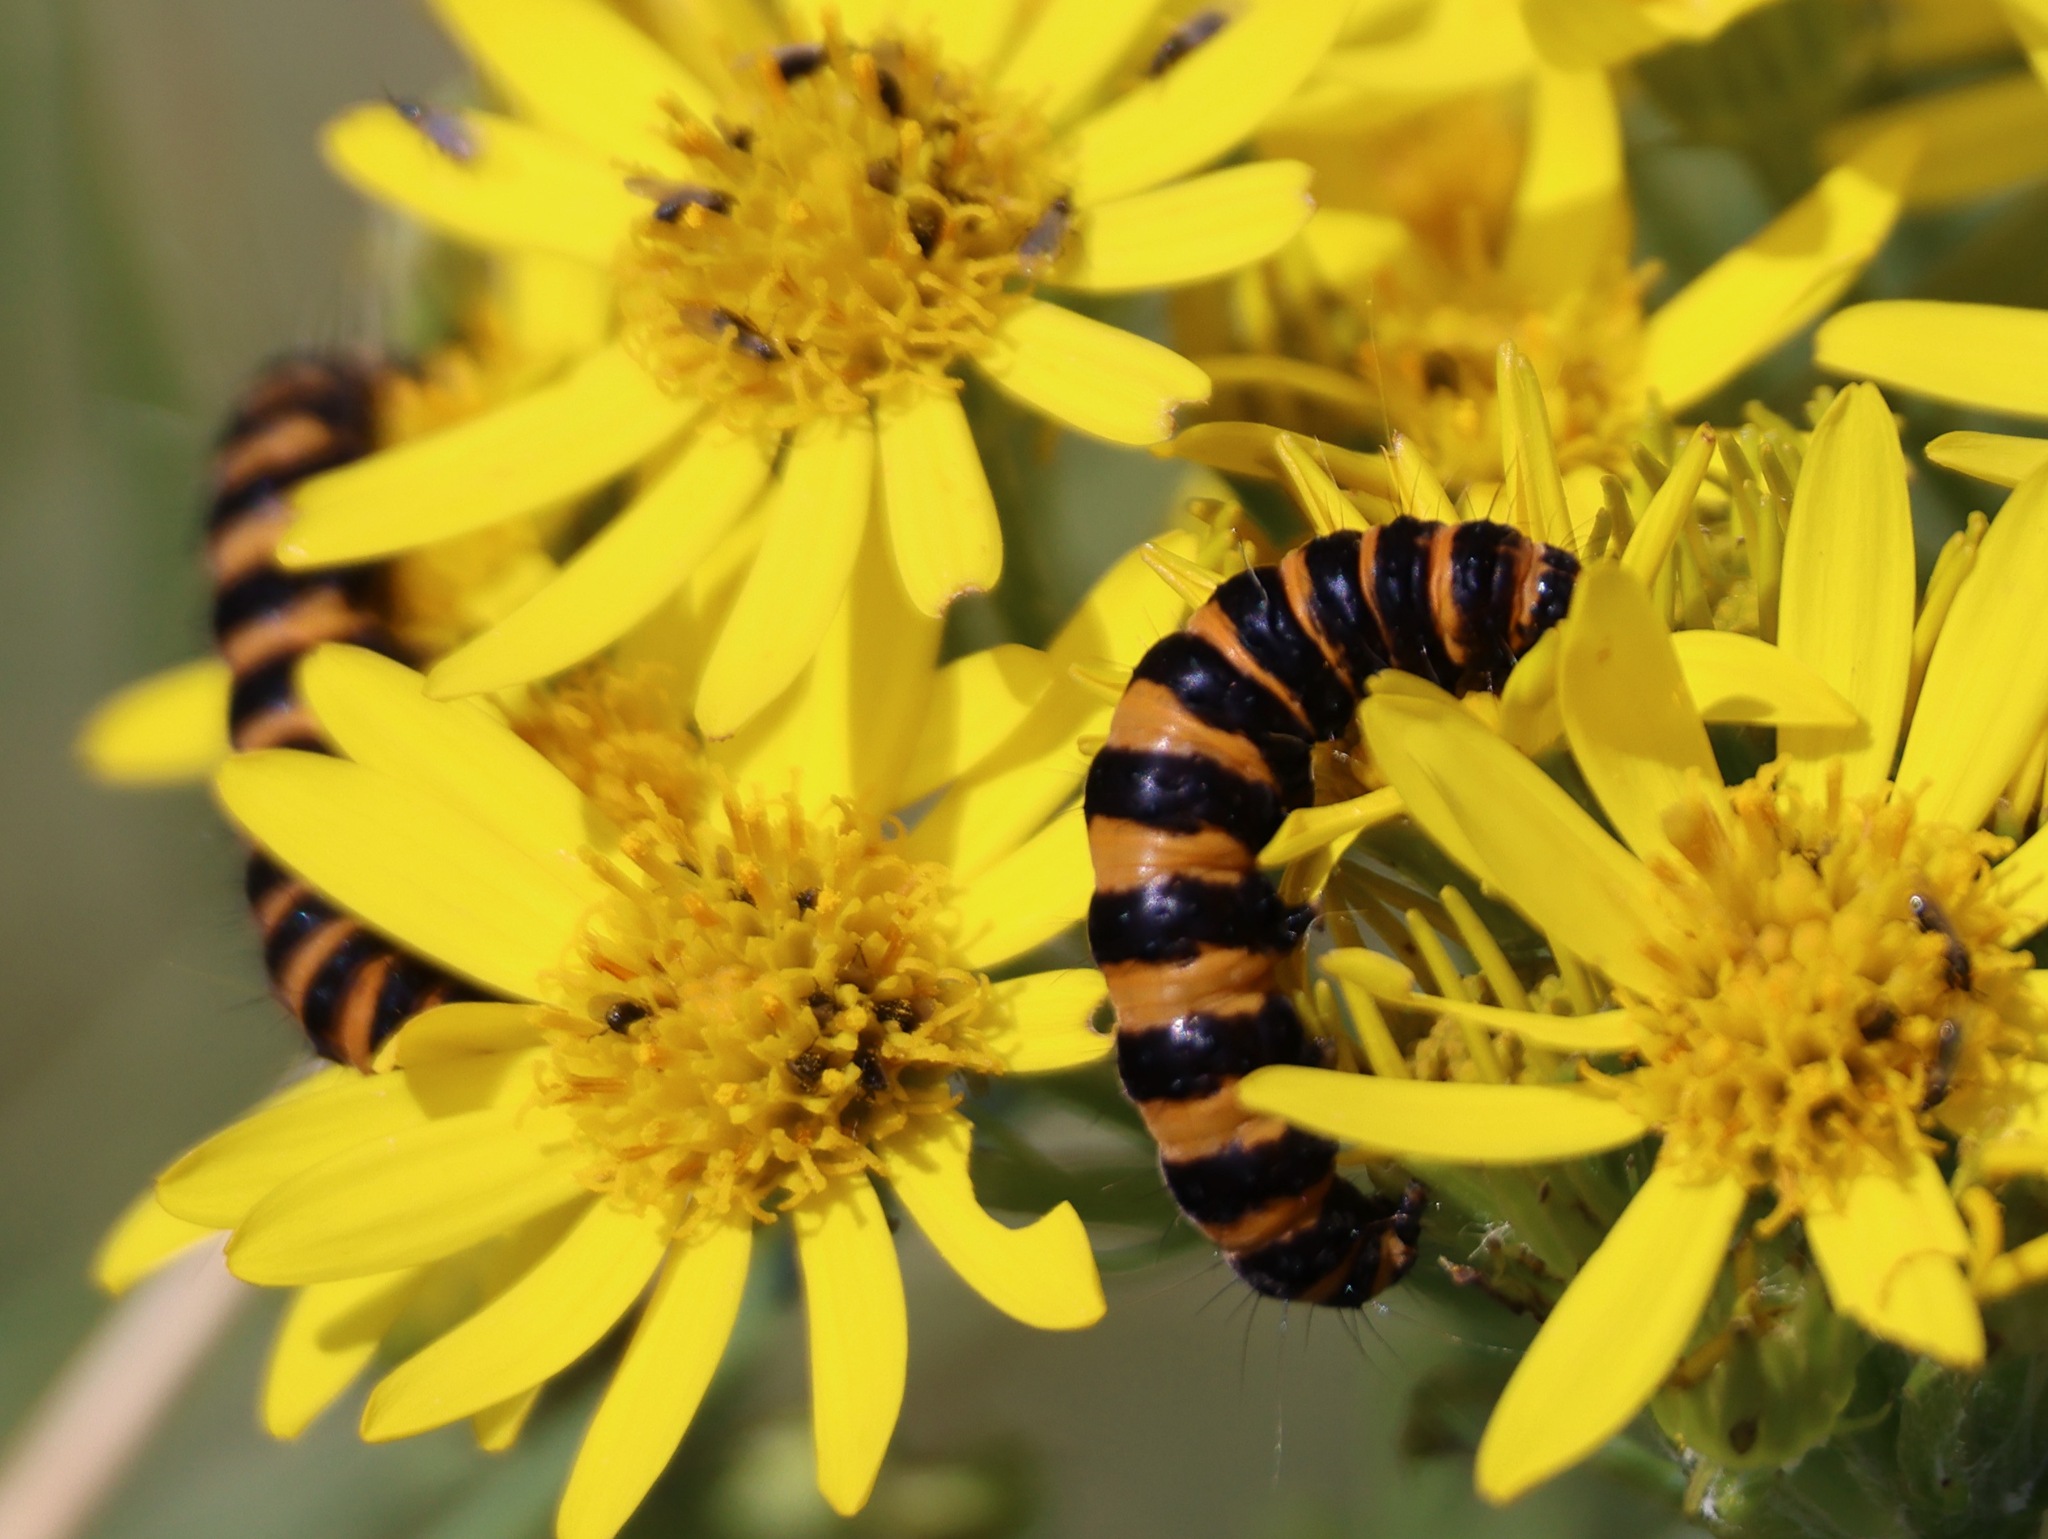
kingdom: Animalia
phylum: Arthropoda
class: Insecta
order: Lepidoptera
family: Erebidae
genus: Tyria
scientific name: Tyria jacobaeae
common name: Cinnabar
